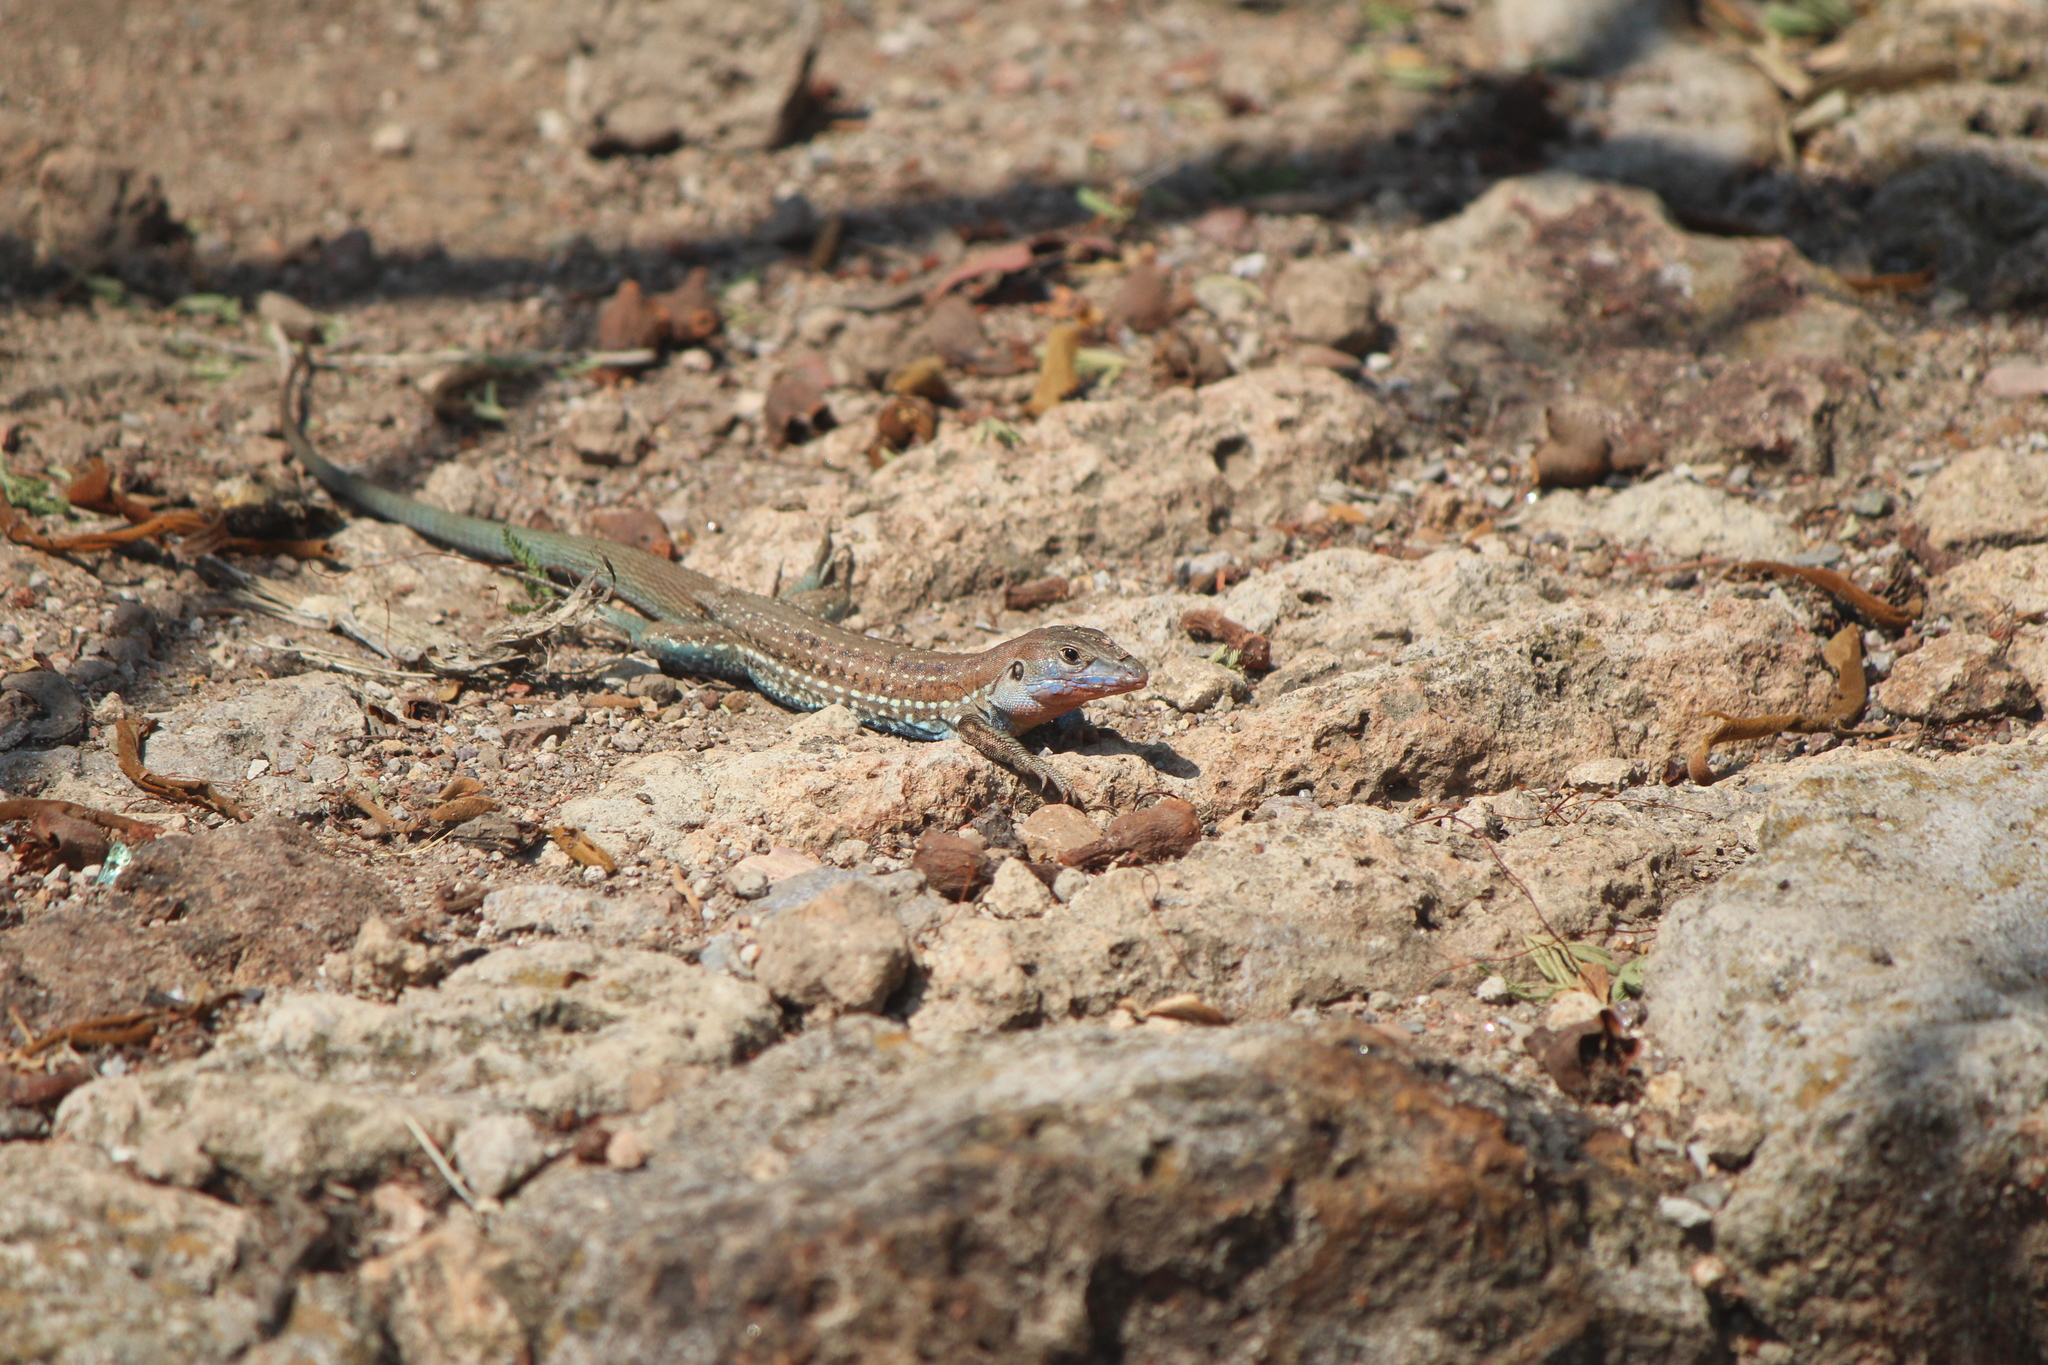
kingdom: Animalia
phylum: Chordata
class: Squamata
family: Teiidae
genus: Aspidoscelis
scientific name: Aspidoscelis gularis
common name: Eastern spotted whiptail
